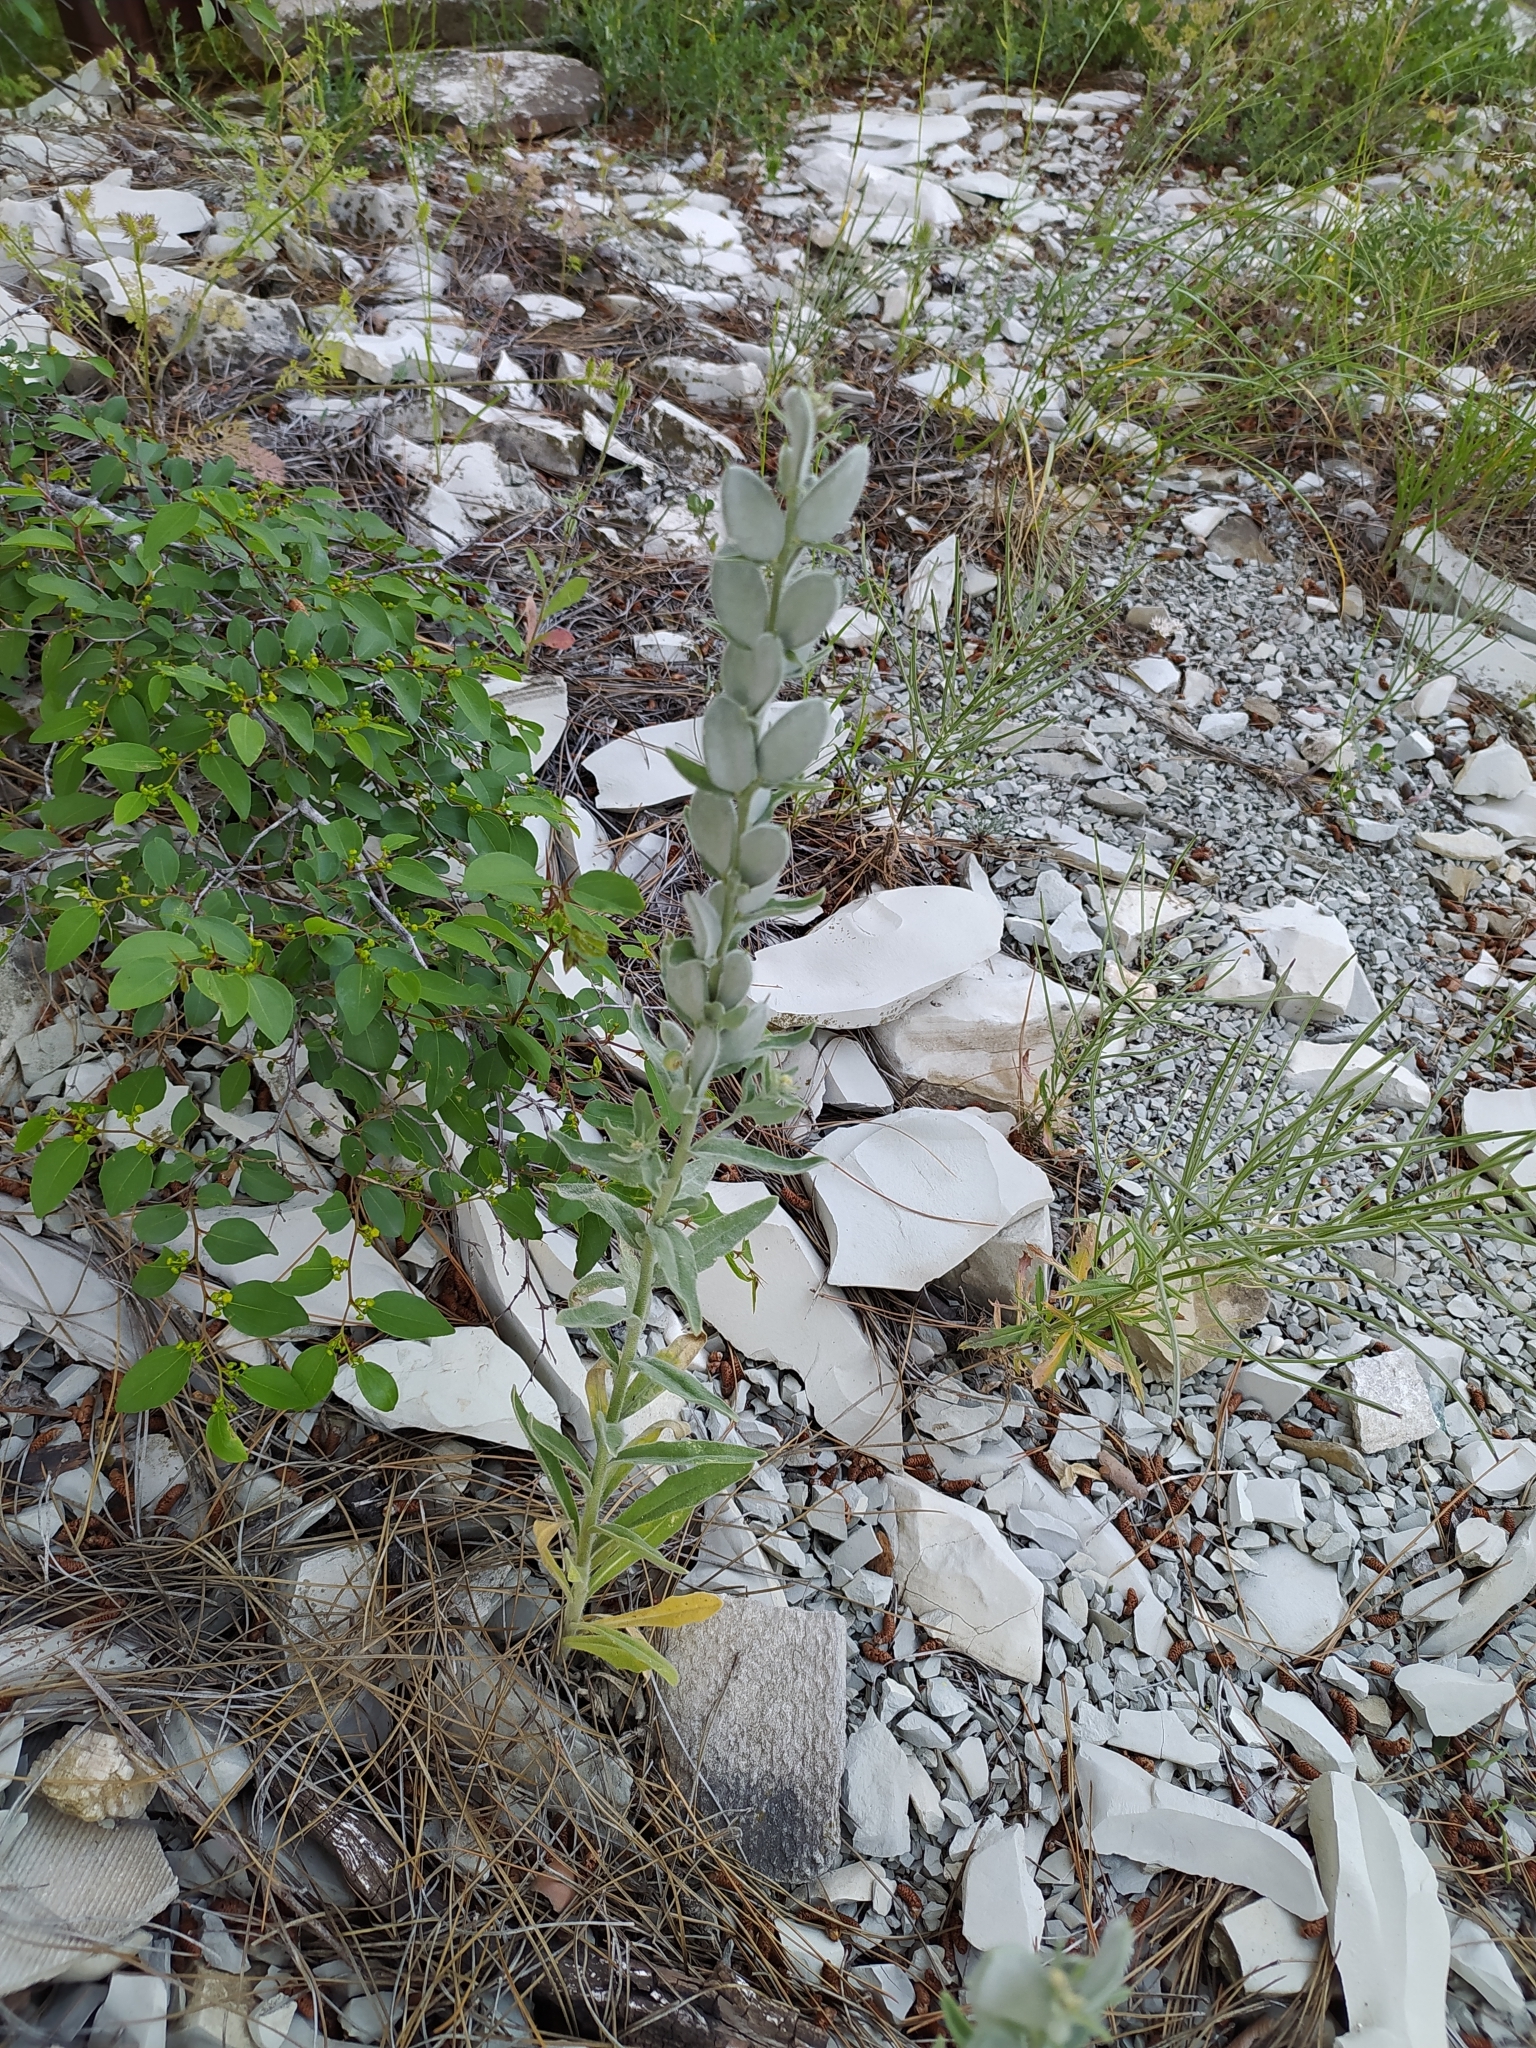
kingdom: Plantae
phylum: Tracheophyta
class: Magnoliopsida
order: Brassicales
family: Brassicaceae
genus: Fibigia
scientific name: Fibigia clypeata
